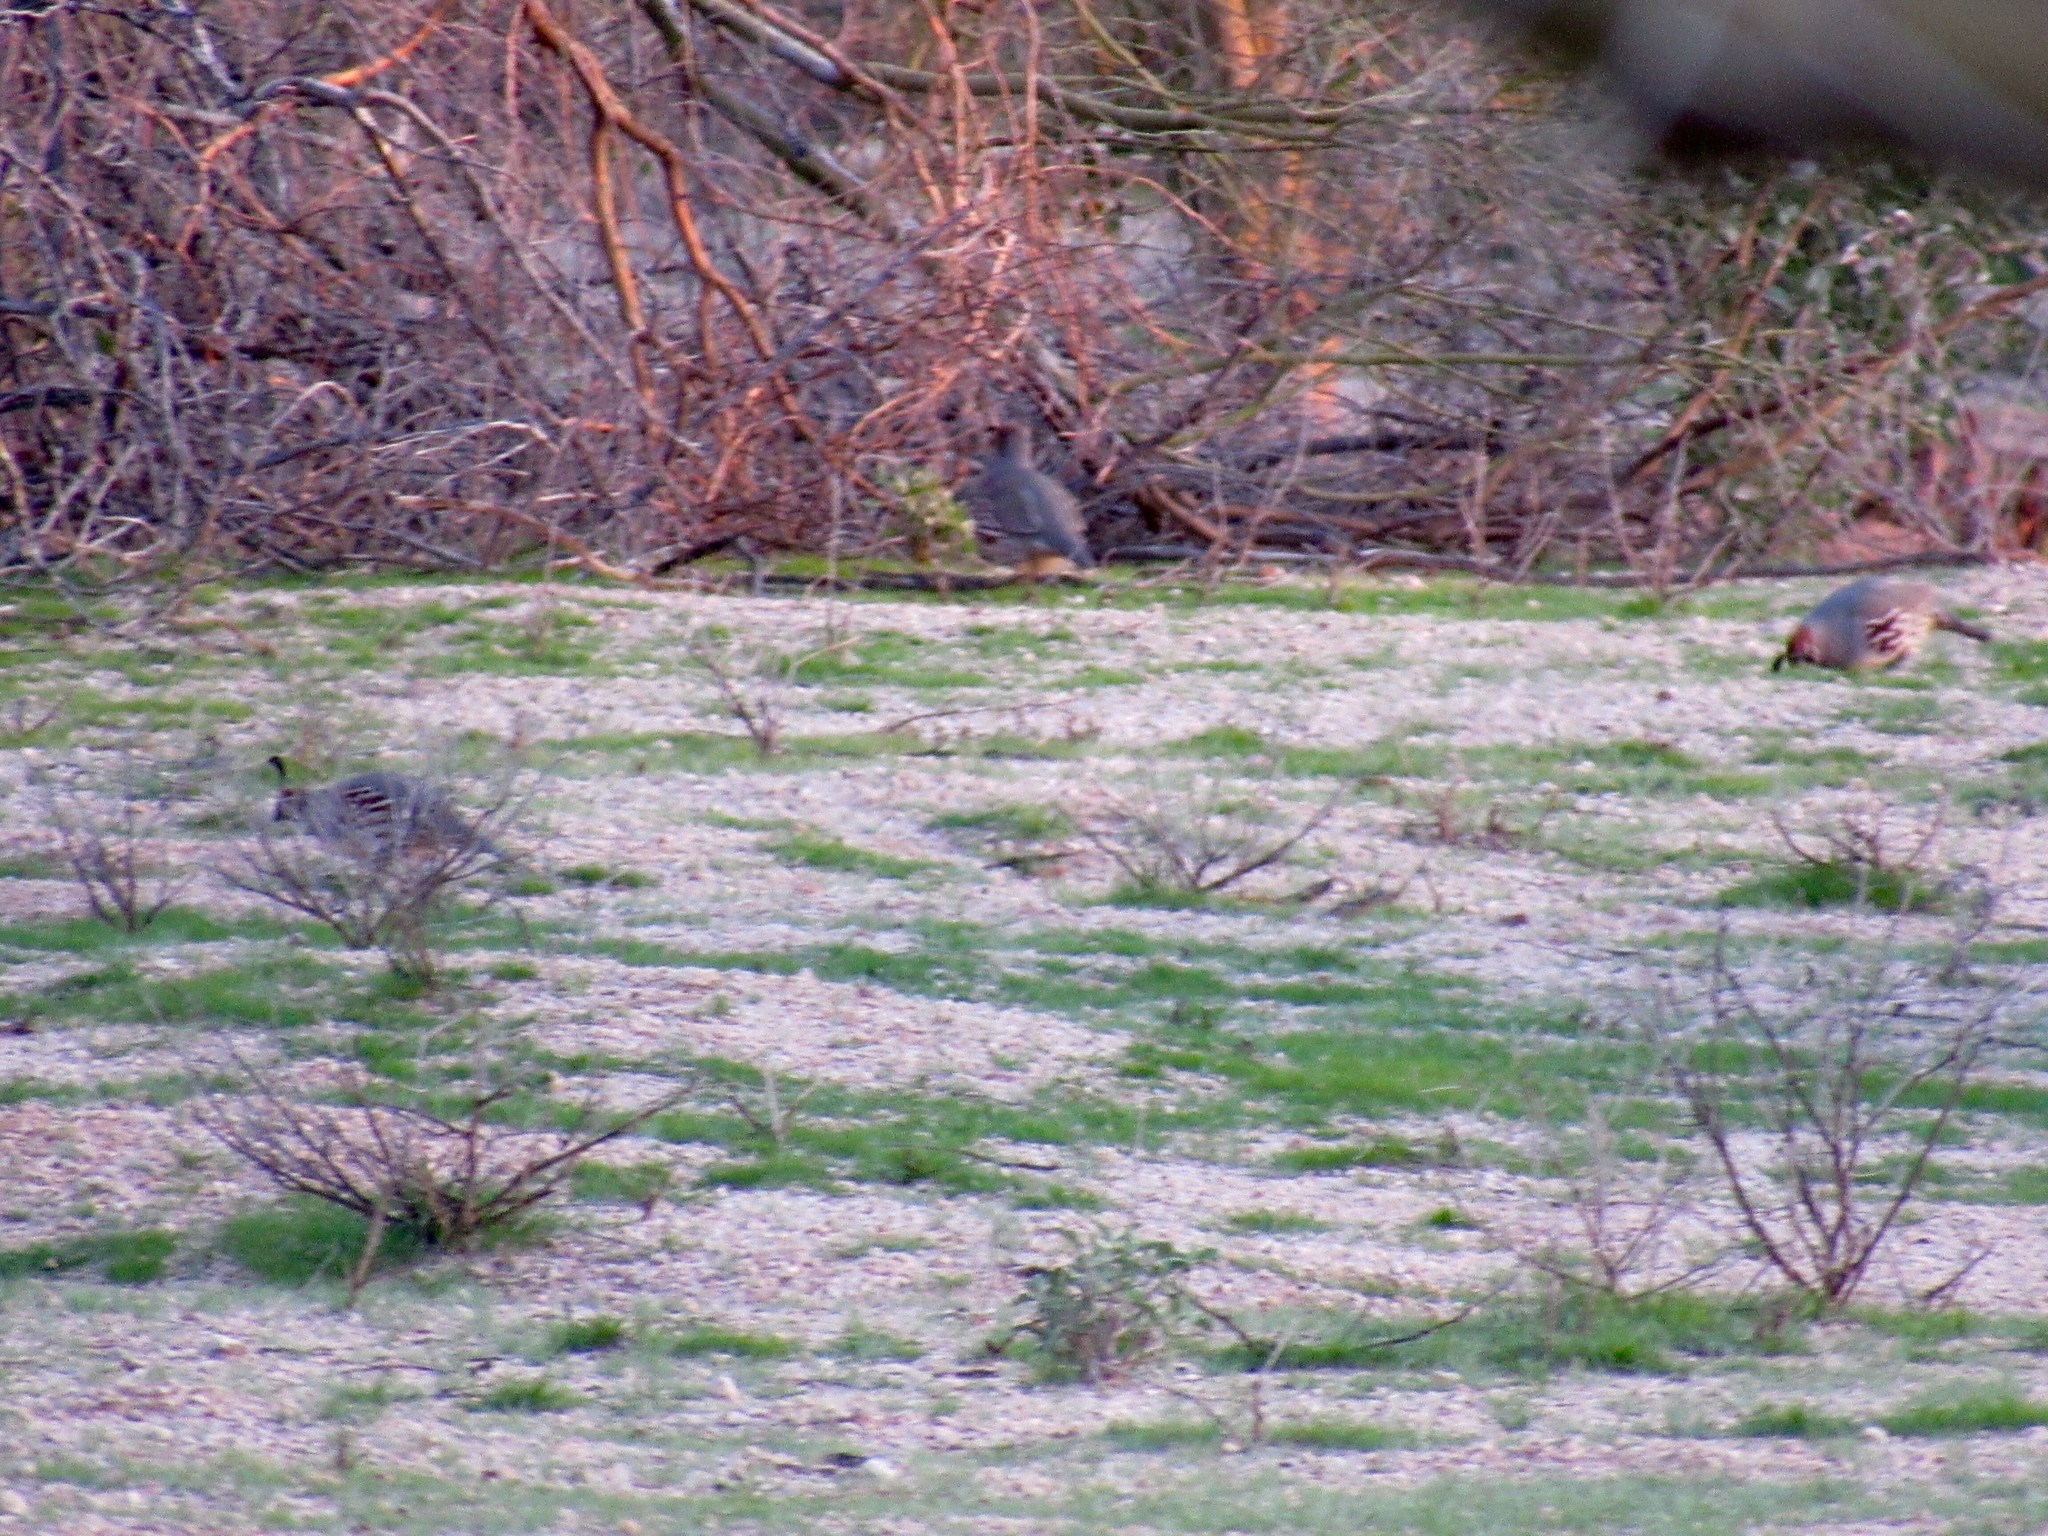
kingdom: Animalia
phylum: Chordata
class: Aves
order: Galliformes
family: Odontophoridae
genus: Callipepla
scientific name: Callipepla gambelii
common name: Gambel's quail
